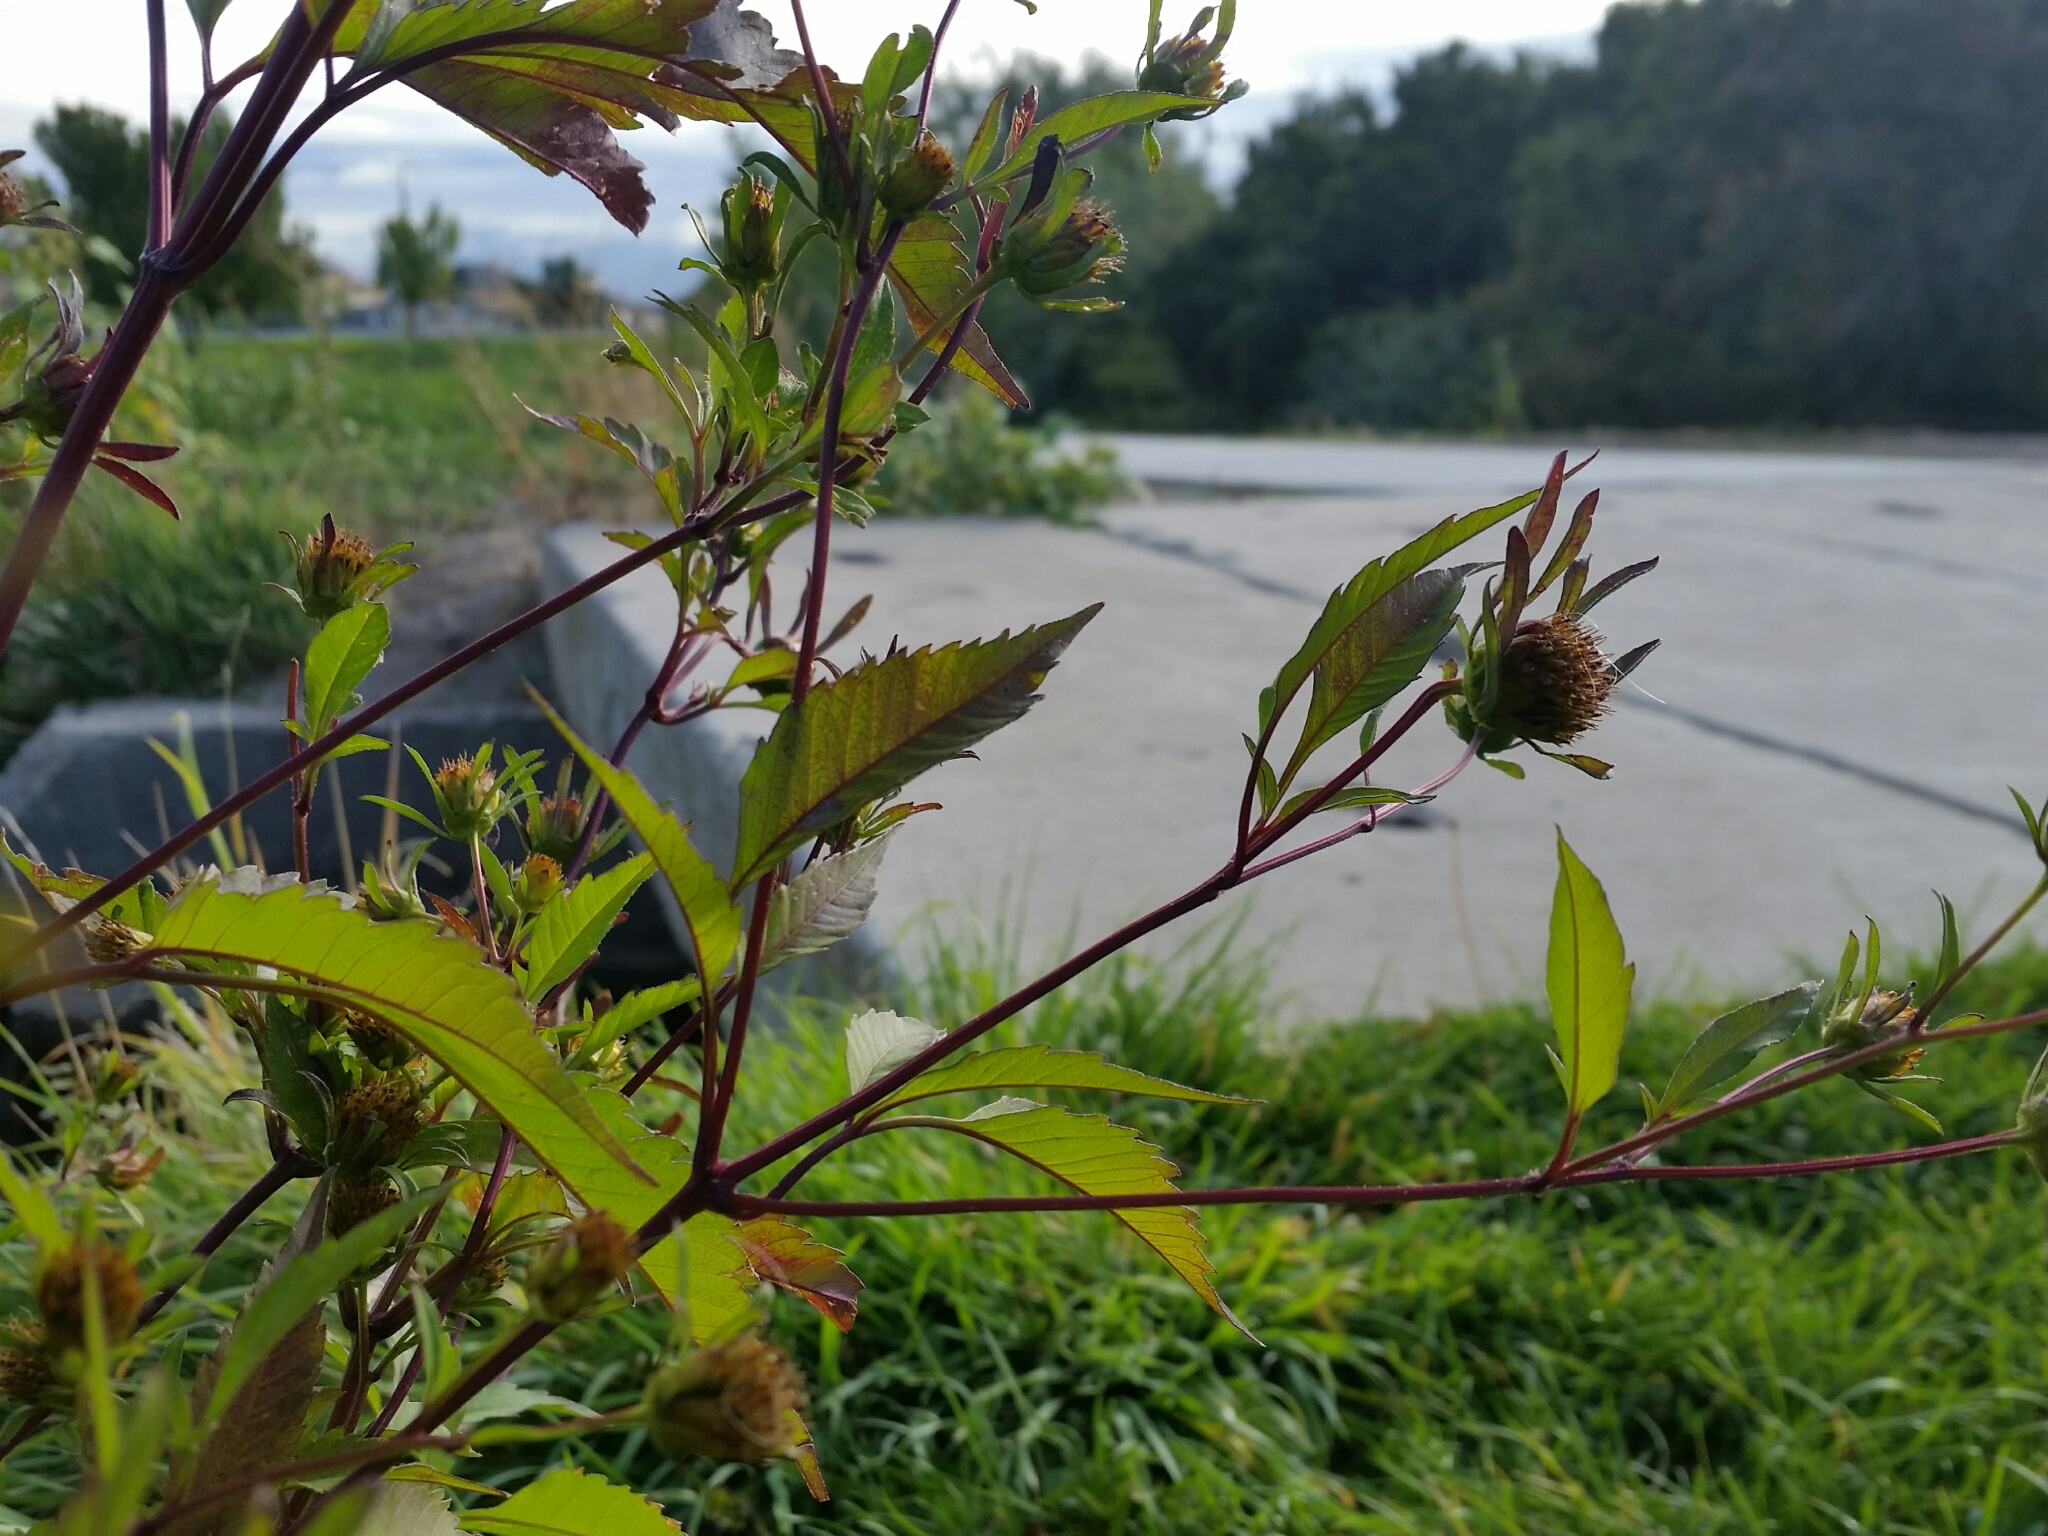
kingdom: Plantae
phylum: Tracheophyta
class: Magnoliopsida
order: Asterales
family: Asteraceae
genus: Bidens
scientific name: Bidens frondosa
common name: Beggarticks
